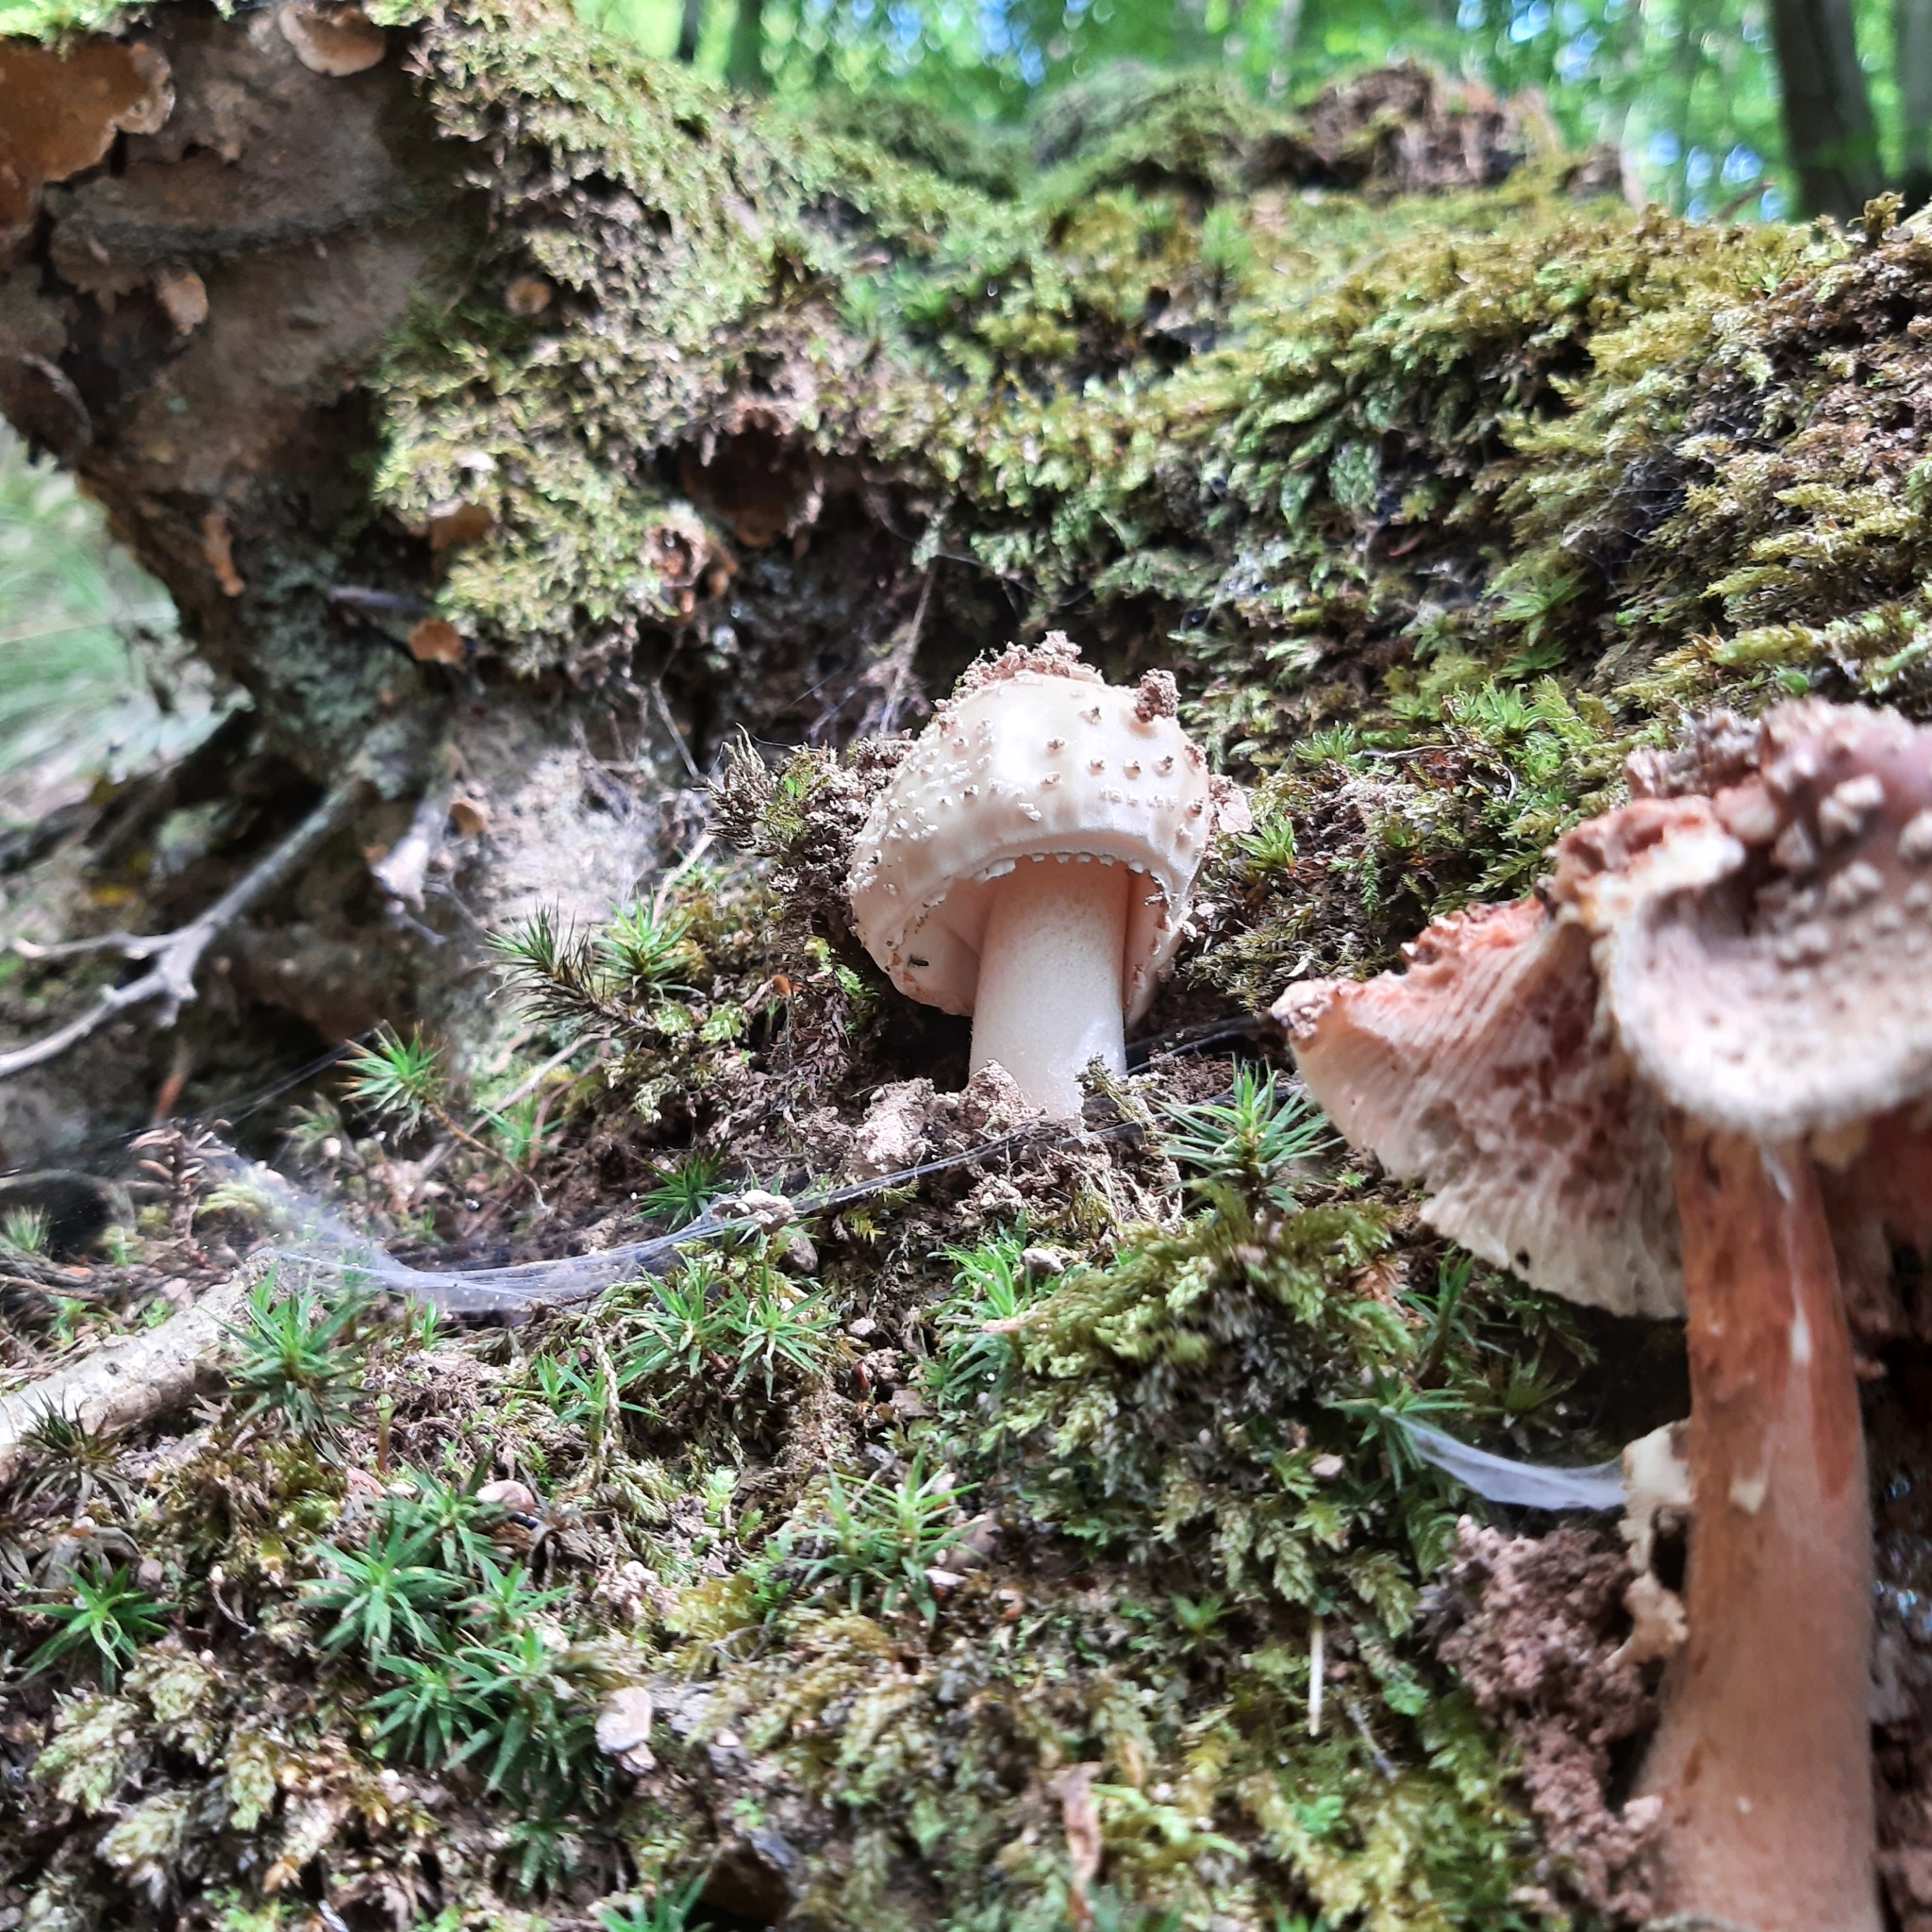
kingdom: Fungi
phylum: Basidiomycota
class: Agaricomycetes
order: Agaricales
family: Amanitaceae
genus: Amanita
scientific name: Amanita rubescens
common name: Blusher
